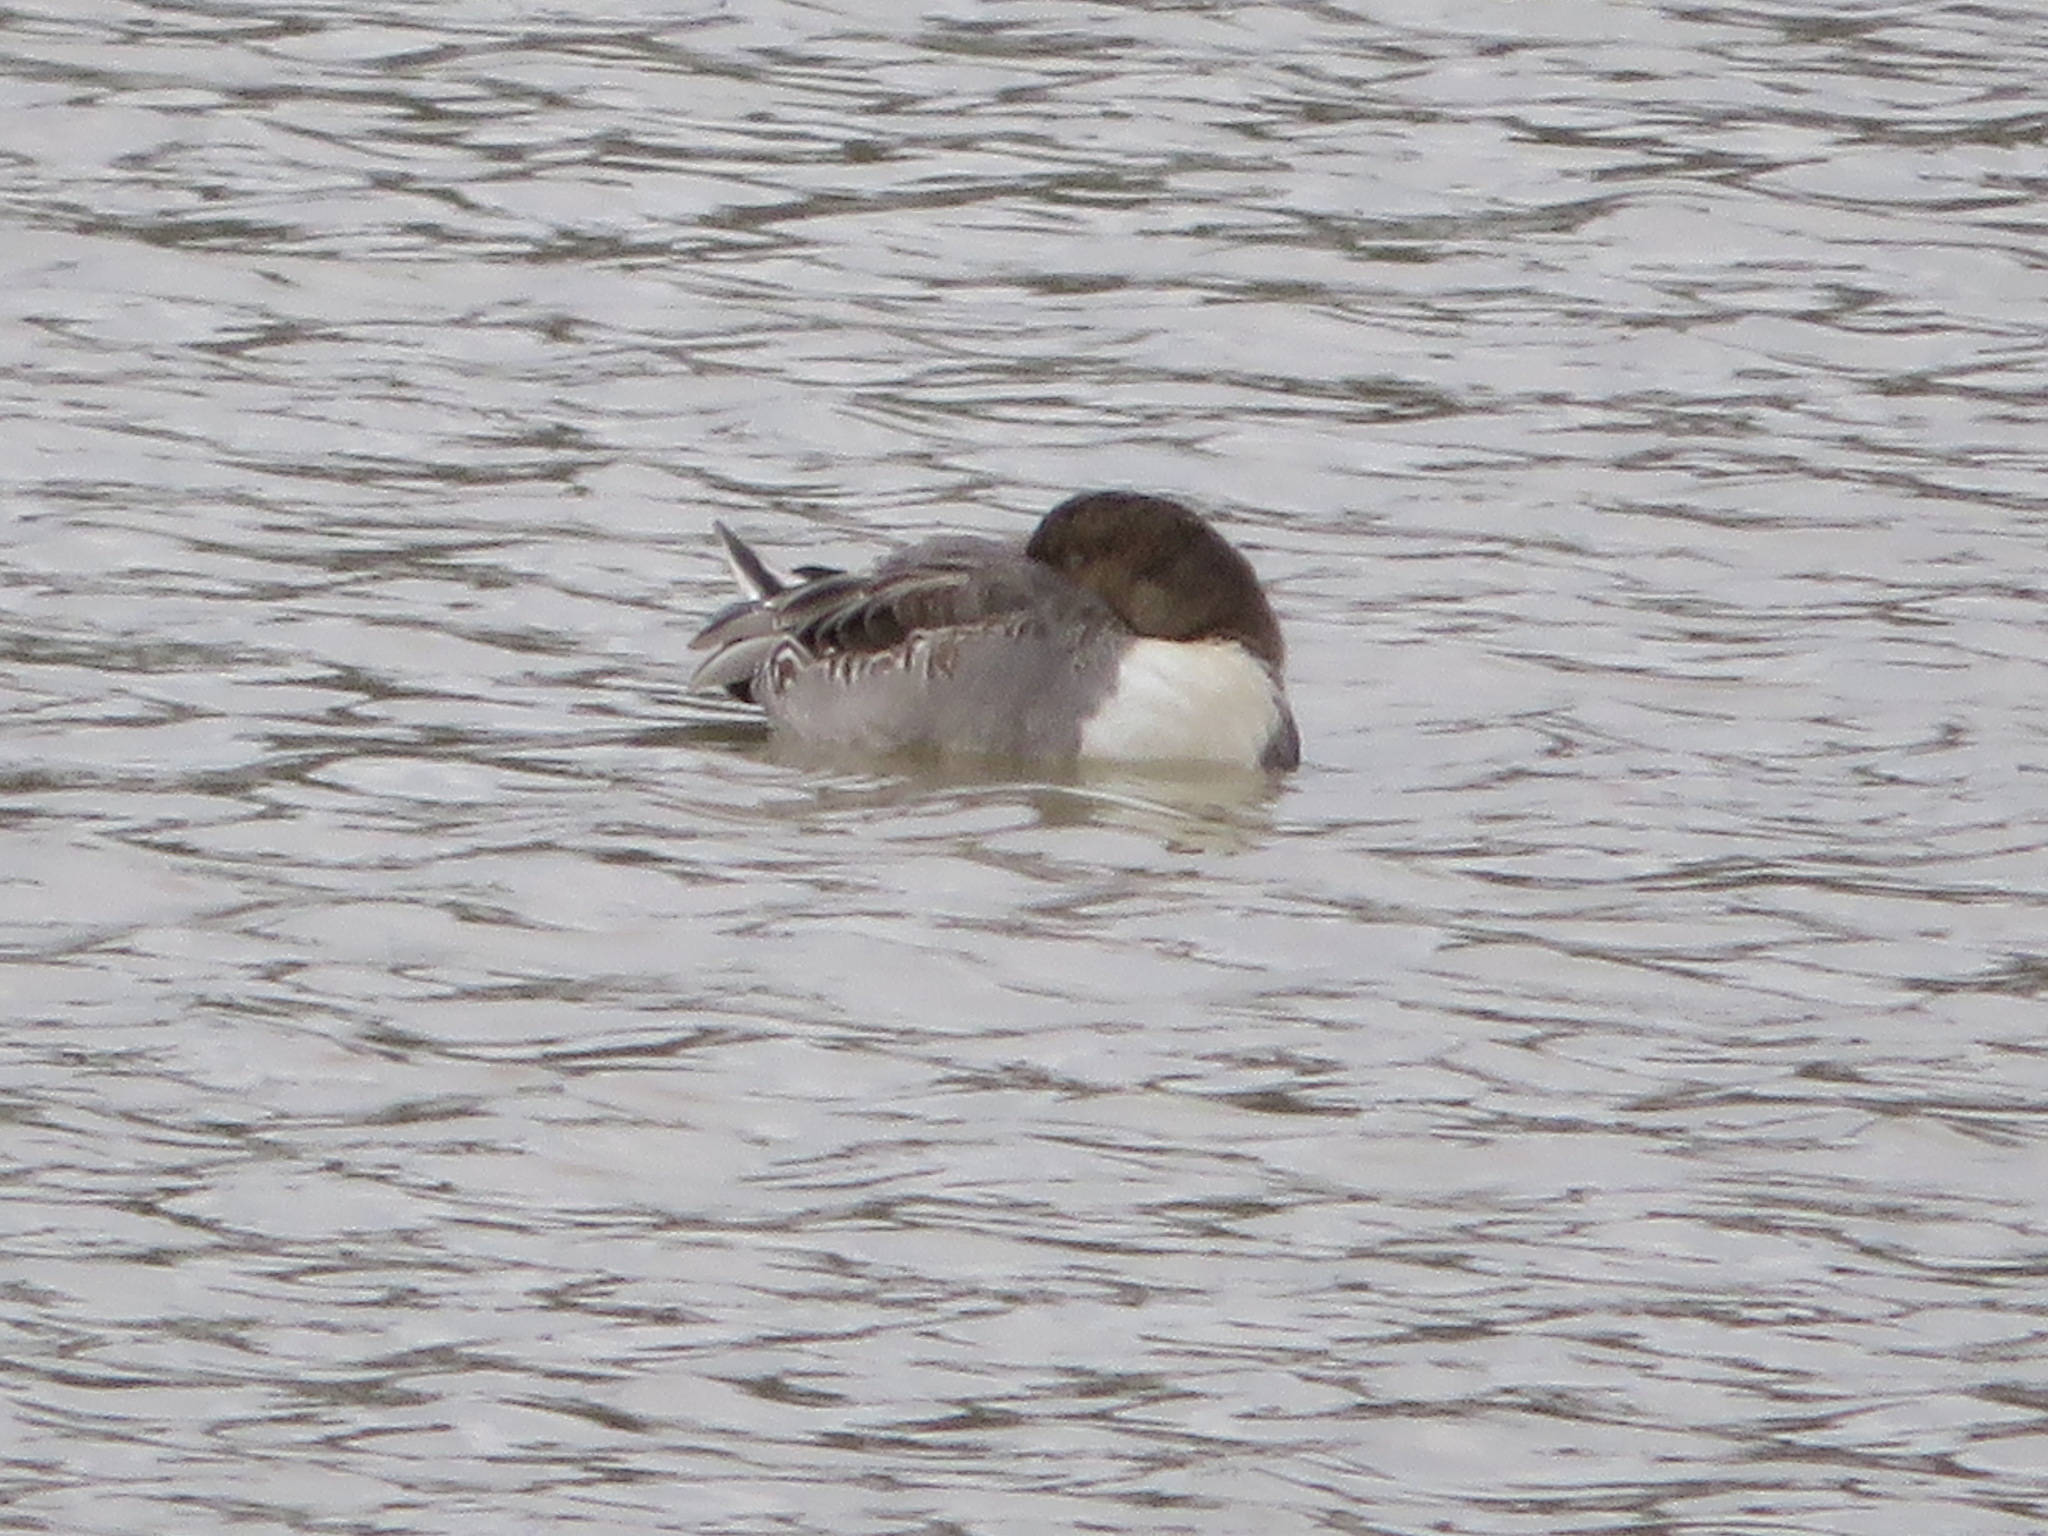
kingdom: Animalia
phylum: Chordata
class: Aves
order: Anseriformes
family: Anatidae
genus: Anas
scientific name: Anas acuta
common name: Northern pintail
